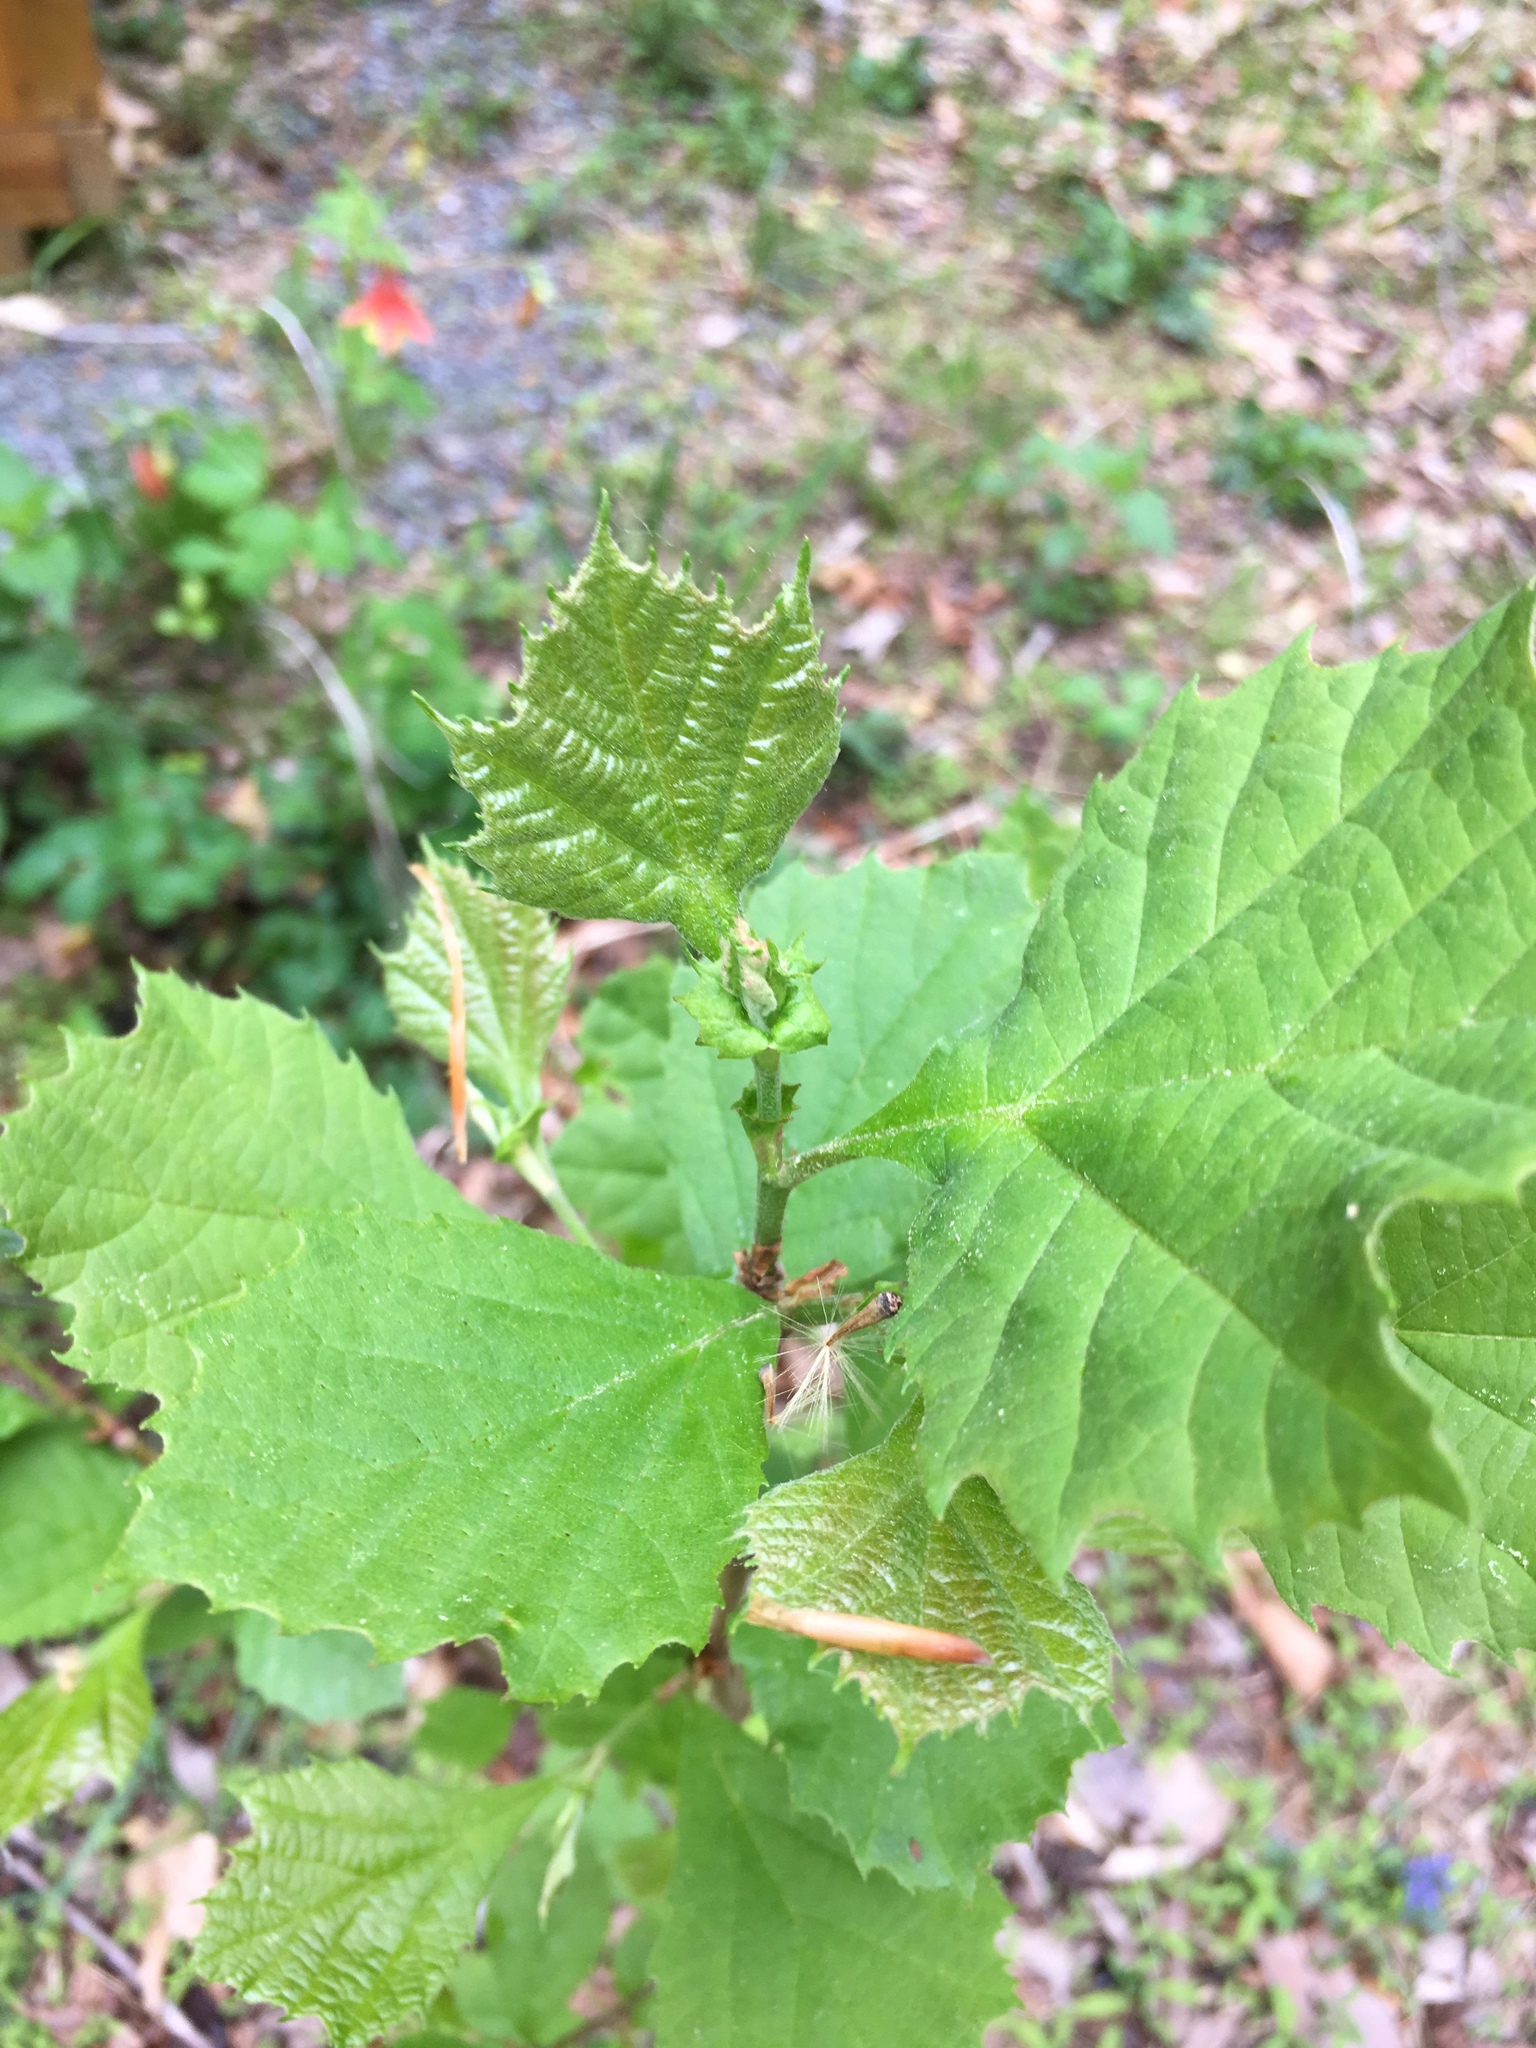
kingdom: Plantae
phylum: Tracheophyta
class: Magnoliopsida
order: Proteales
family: Platanaceae
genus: Platanus
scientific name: Platanus occidentalis
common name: American sycamore
